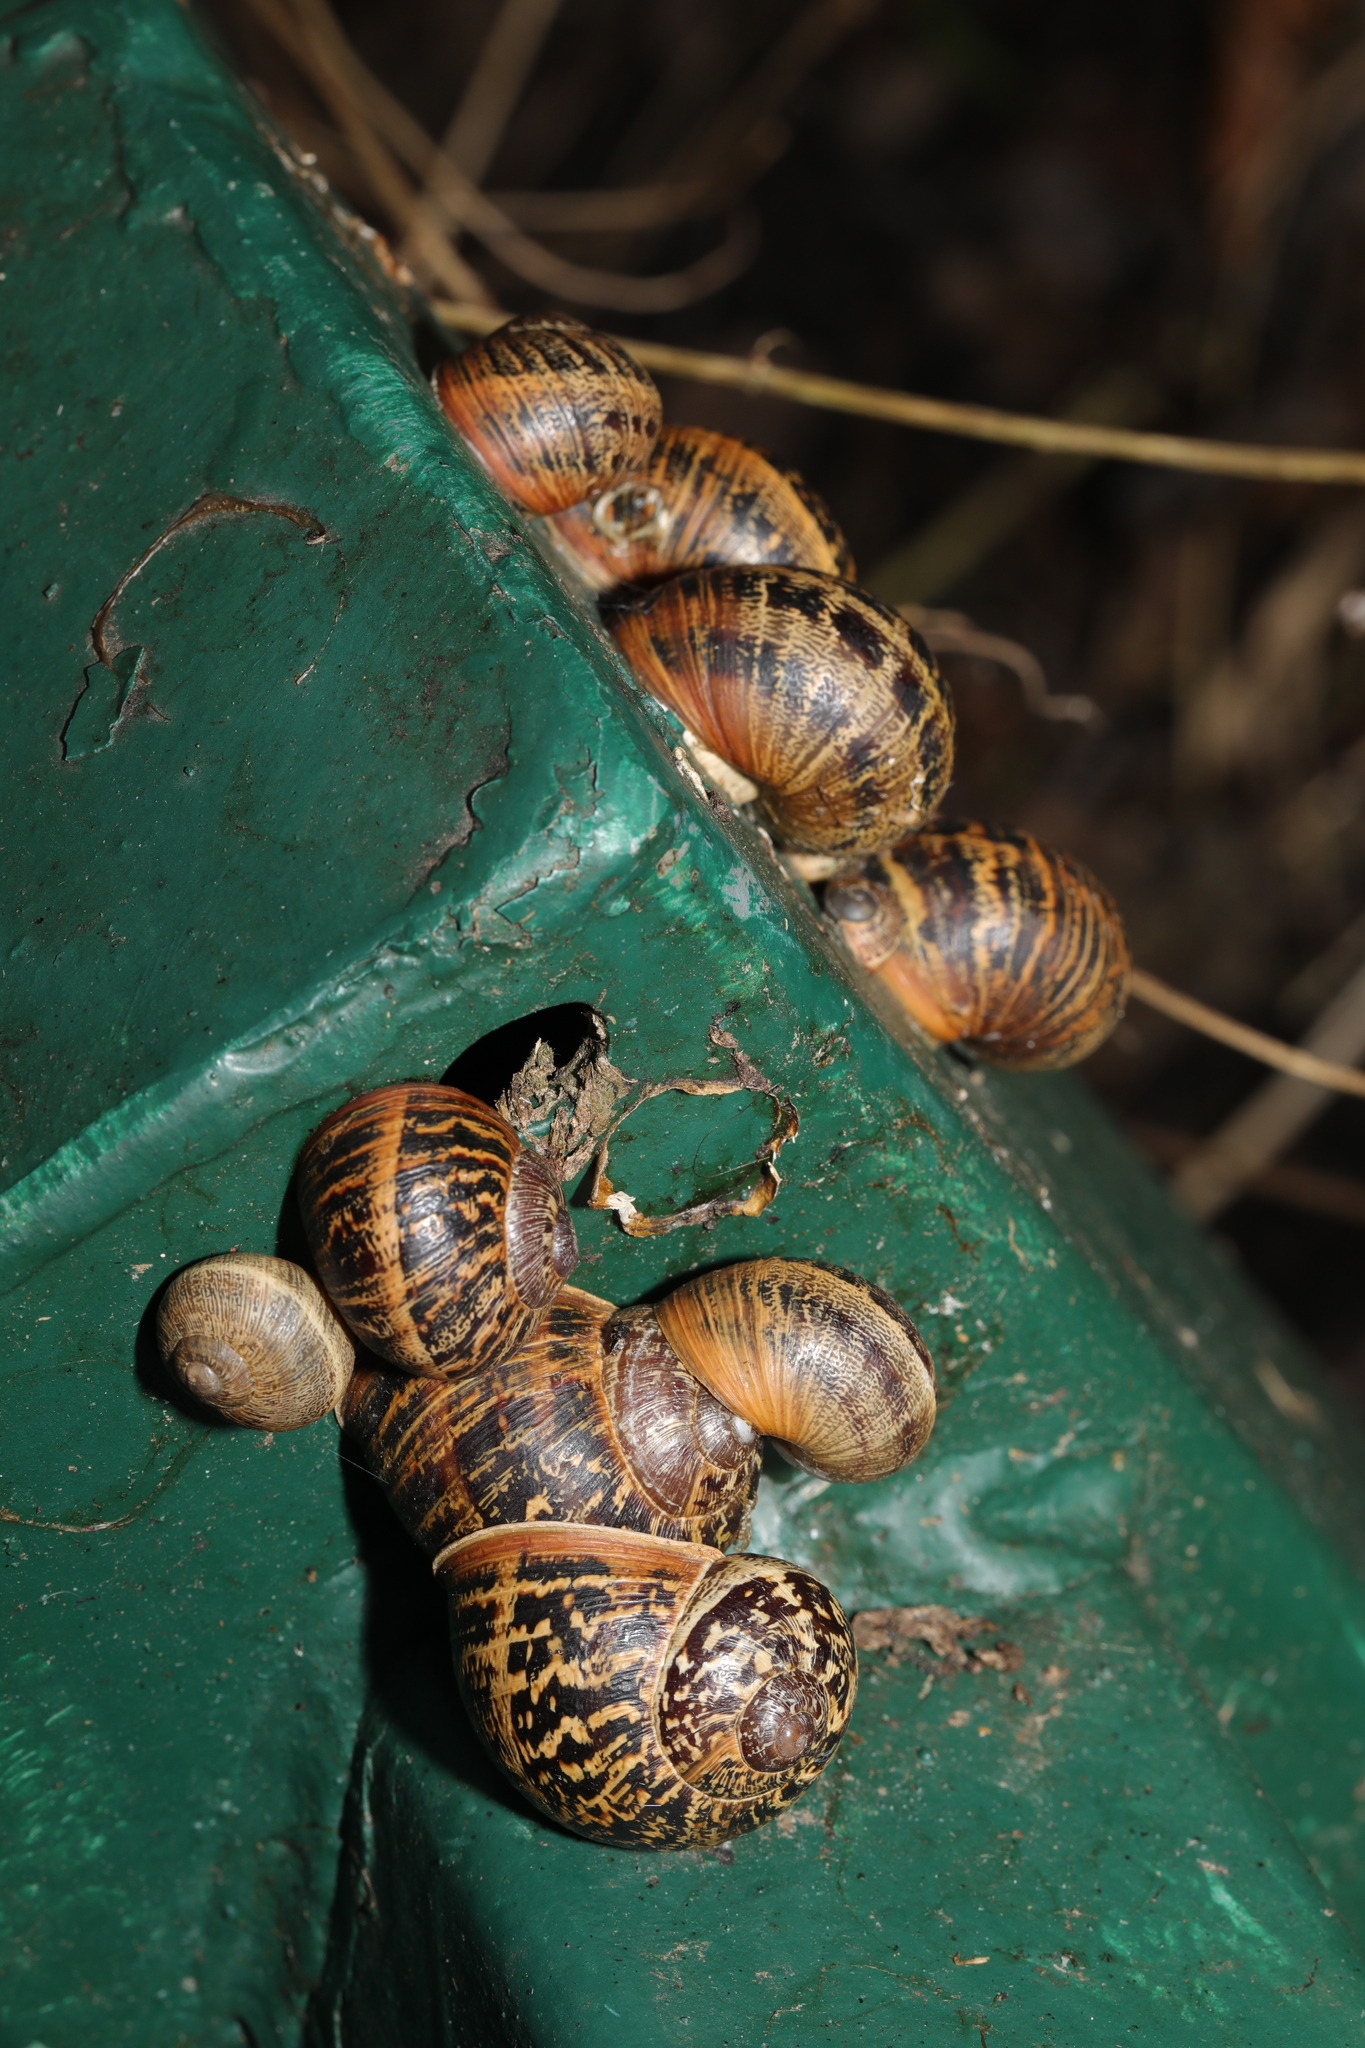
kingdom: Animalia
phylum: Mollusca
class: Gastropoda
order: Stylommatophora
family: Helicidae
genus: Cornu
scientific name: Cornu aspersum
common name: Brown garden snail
